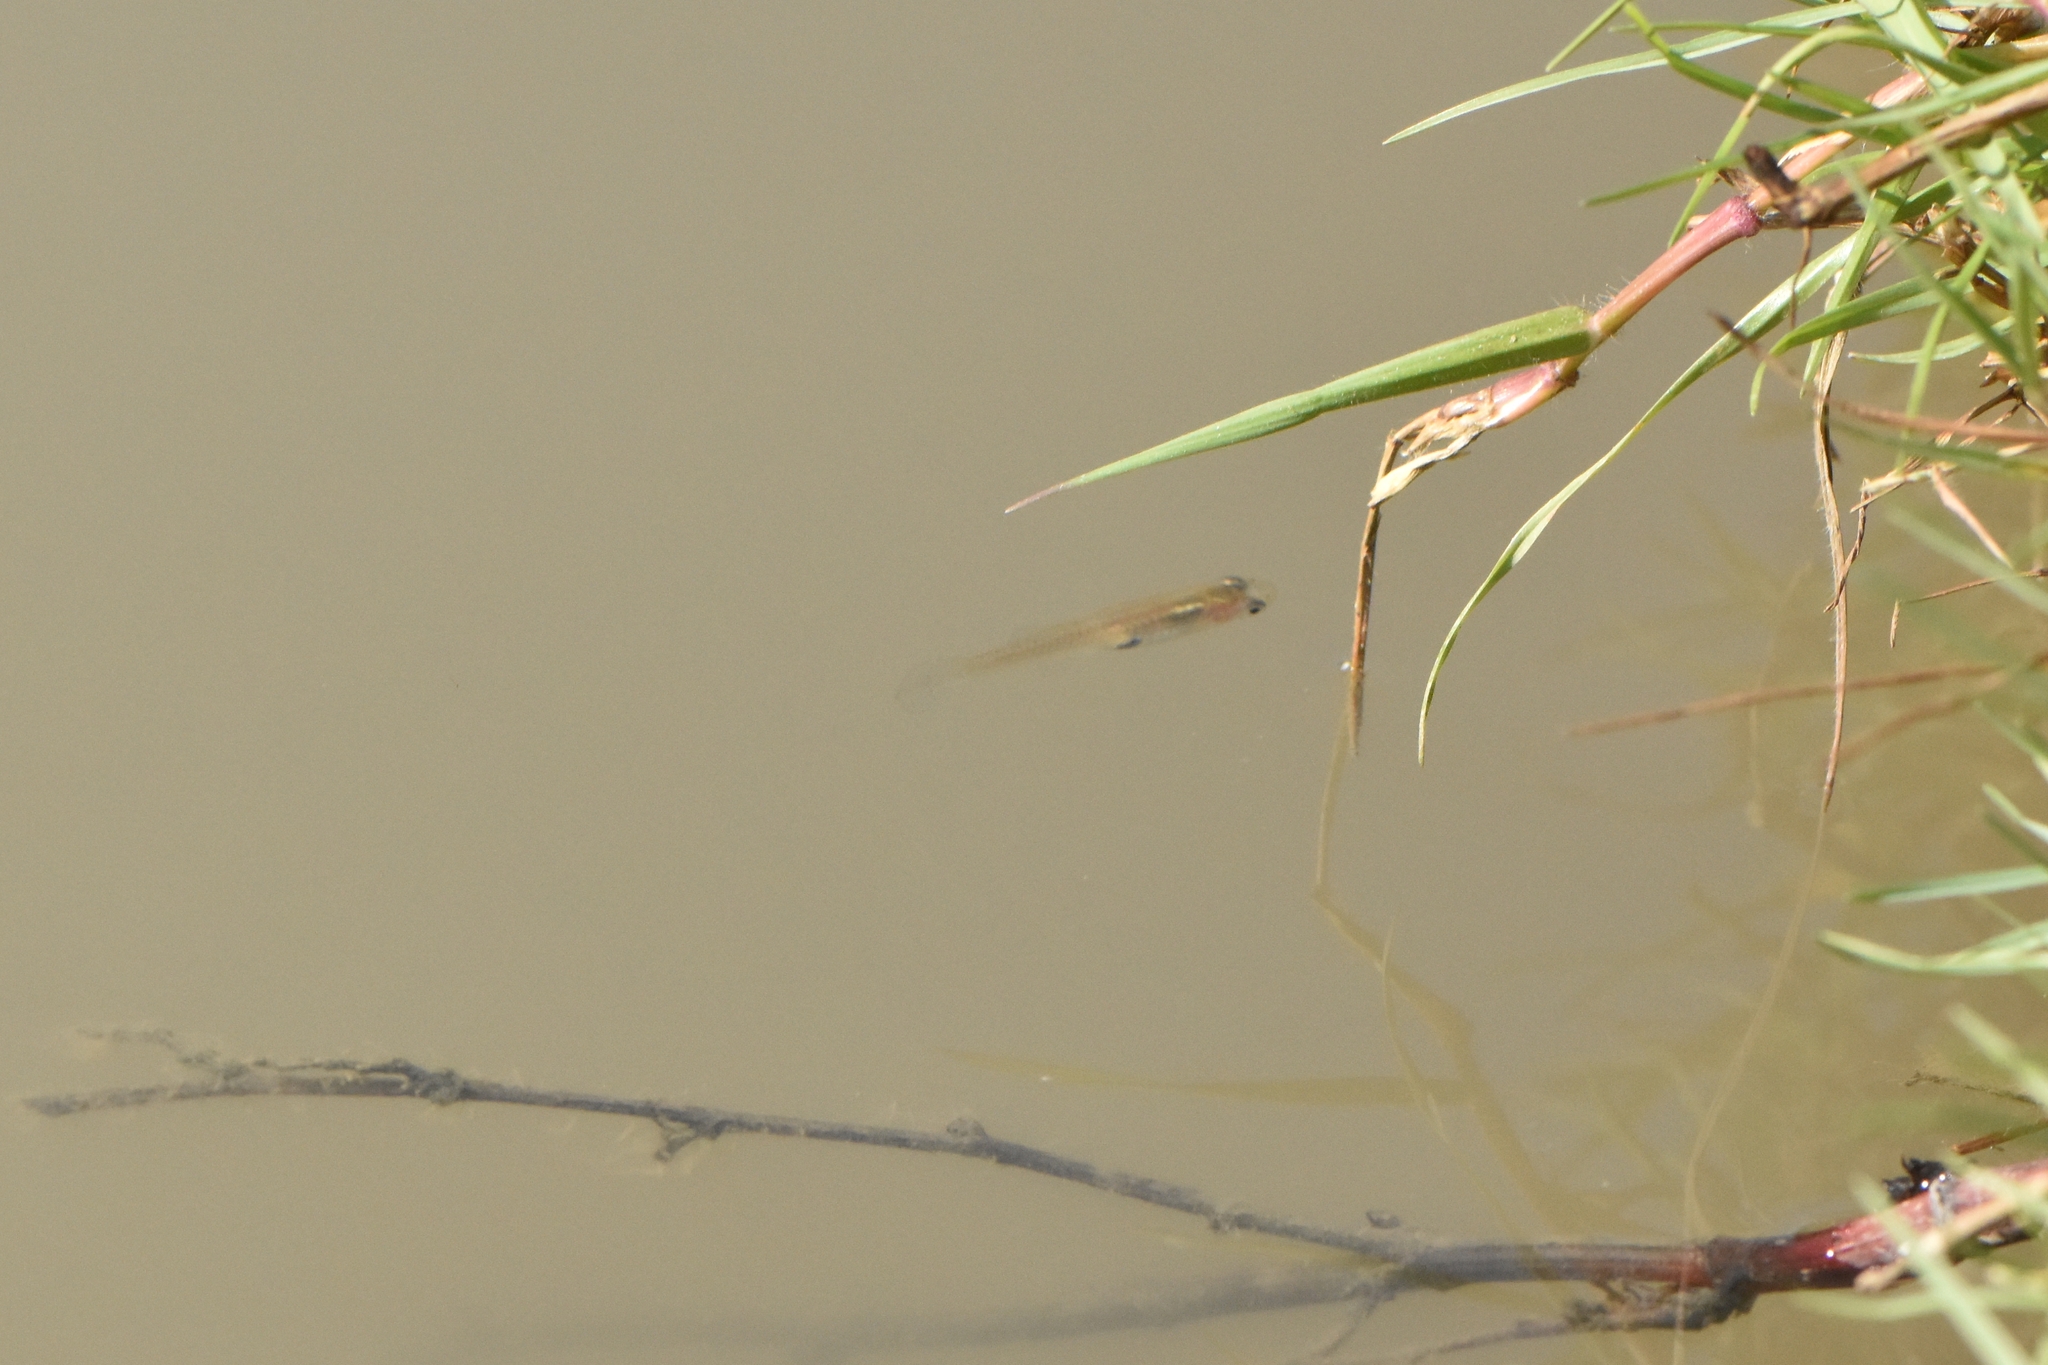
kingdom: Animalia
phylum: Chordata
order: Cyprinodontiformes
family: Poeciliidae
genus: Gambusia
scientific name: Gambusia holbrooki
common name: Eastern mosquitofish
